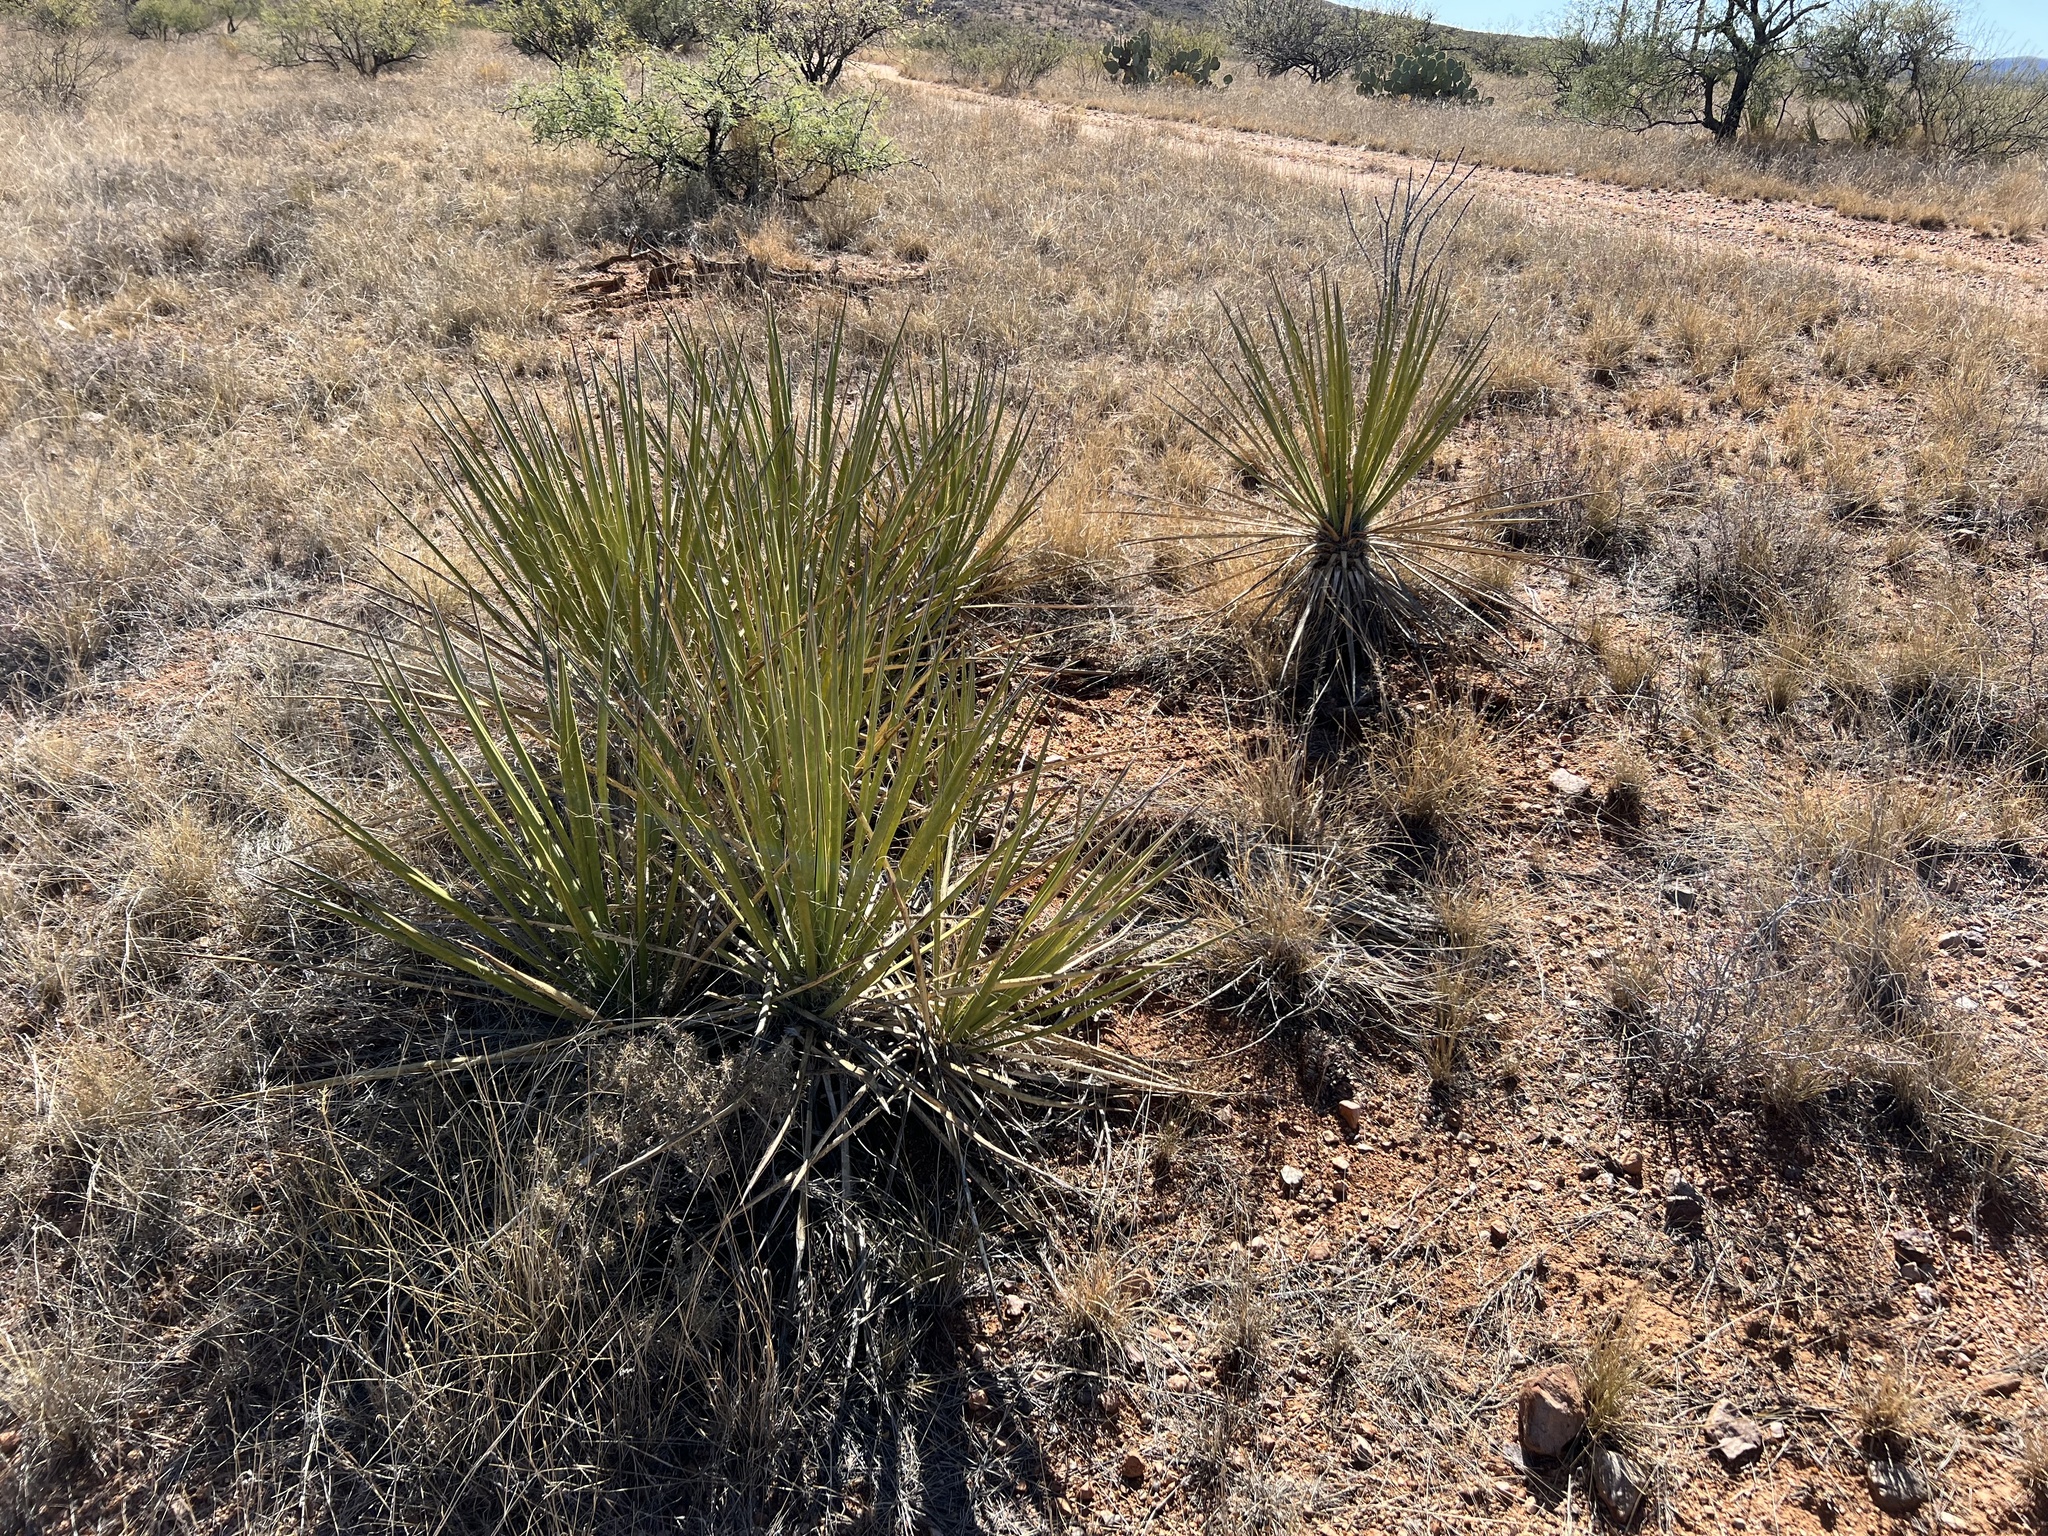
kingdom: Plantae
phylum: Tracheophyta
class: Liliopsida
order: Asparagales
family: Asparagaceae
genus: Yucca
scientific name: Yucca baccata
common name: Banana yucca
